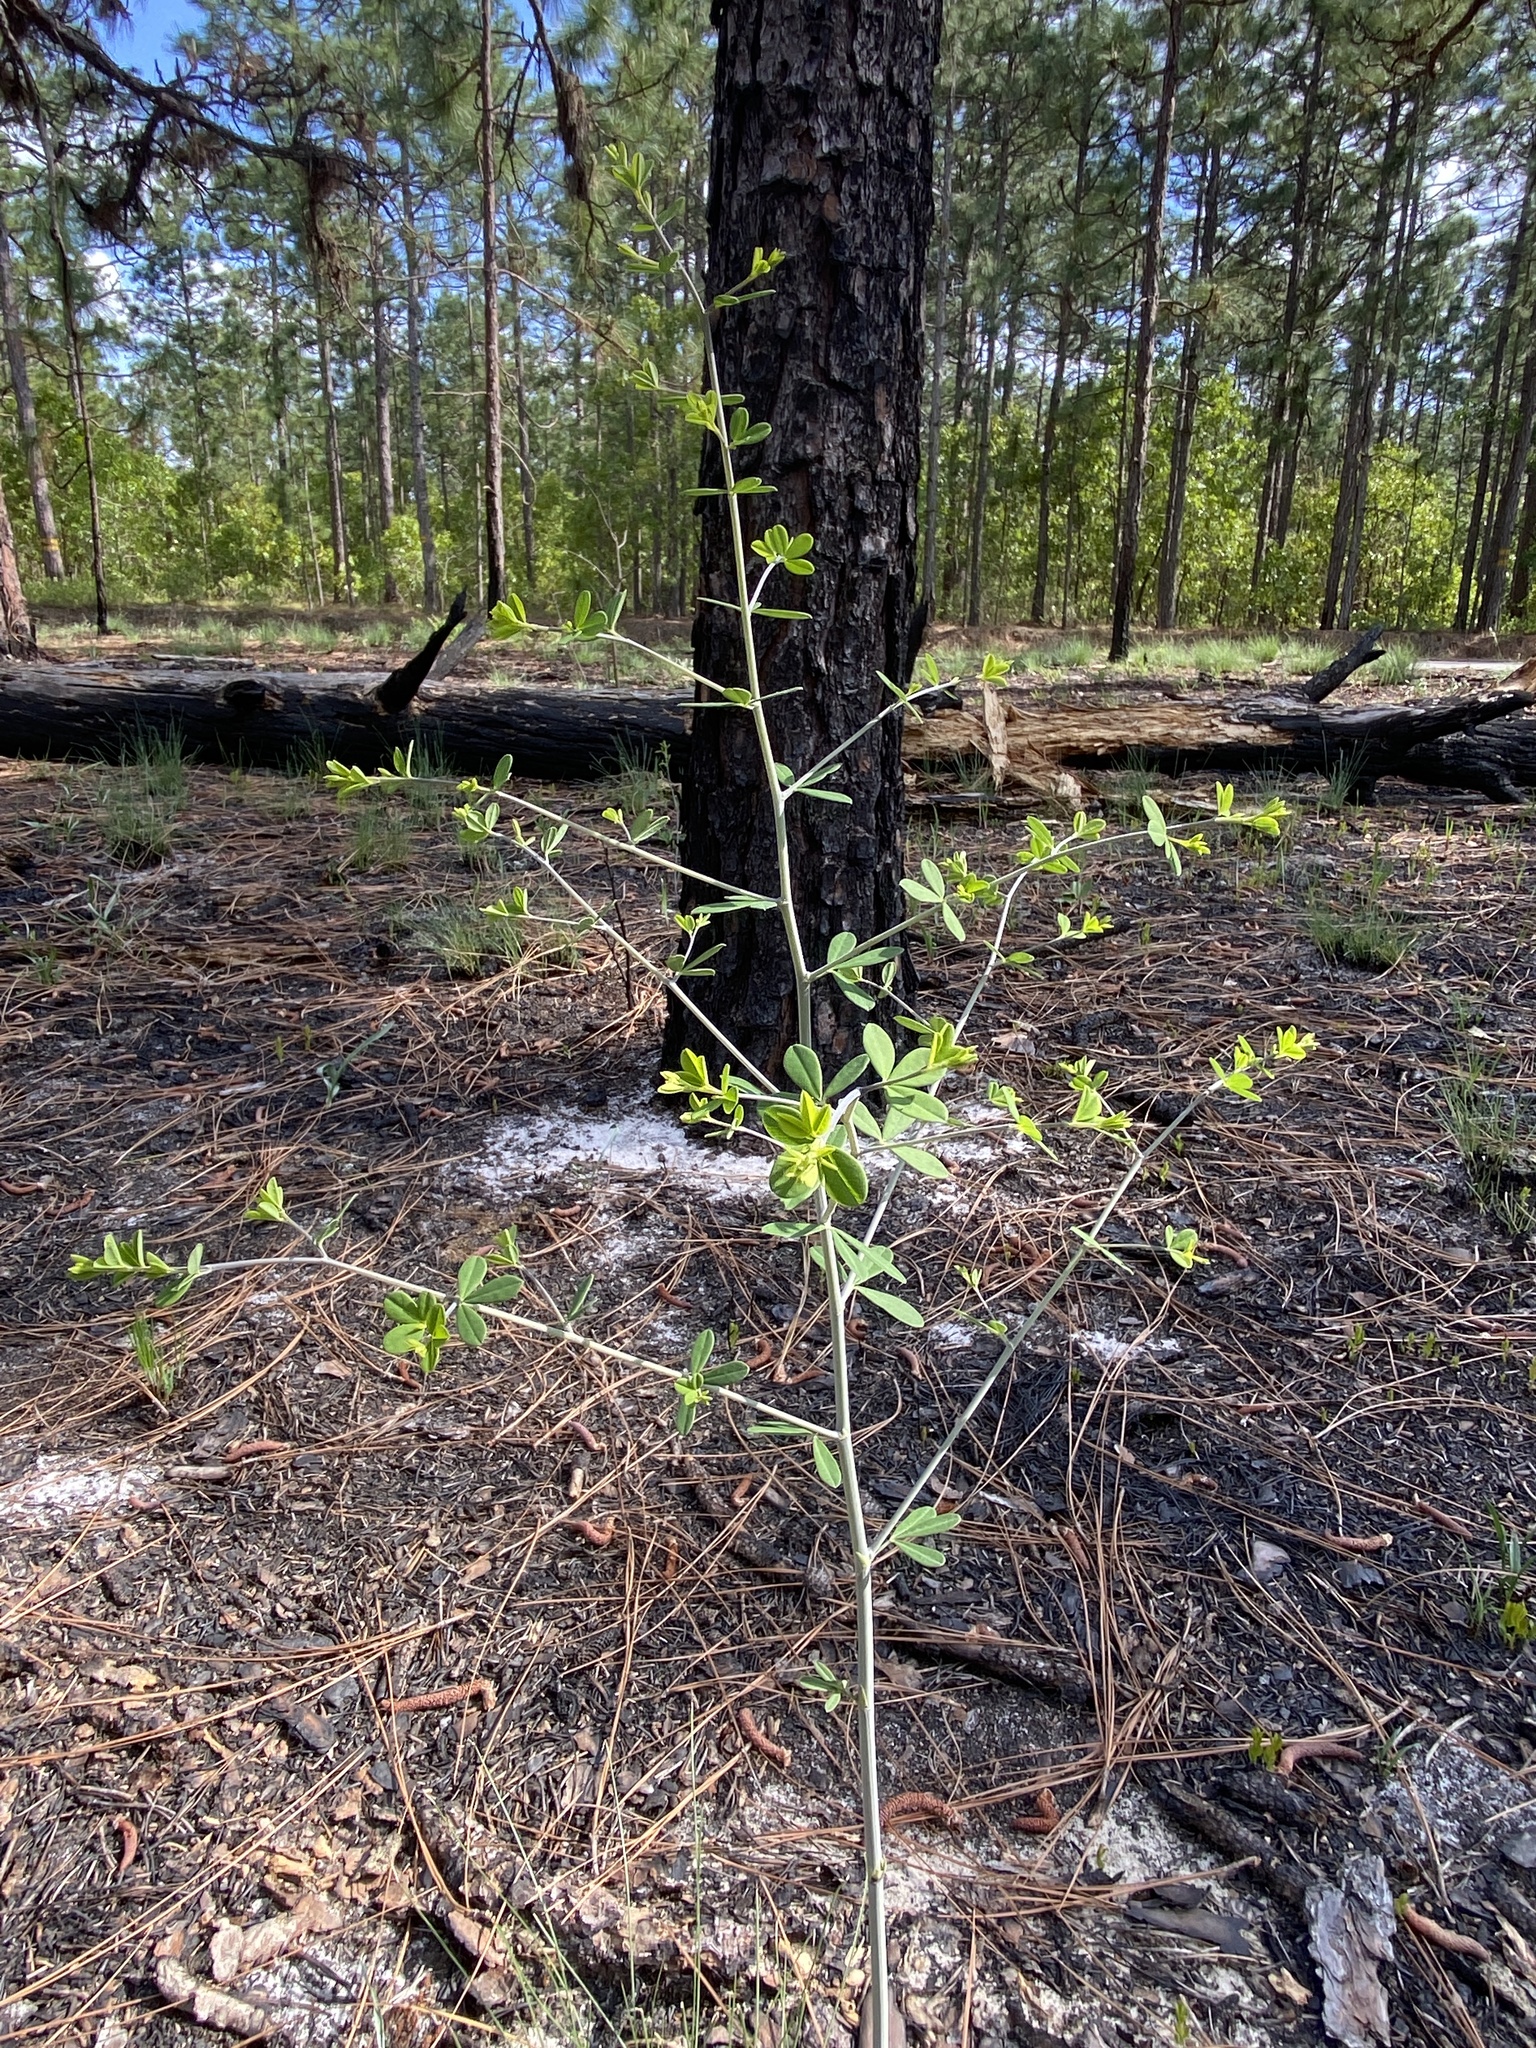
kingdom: Plantae
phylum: Tracheophyta
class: Magnoliopsida
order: Fabales
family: Fabaceae
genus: Baptisia
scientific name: Baptisia tinctoria
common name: Wild indigo
